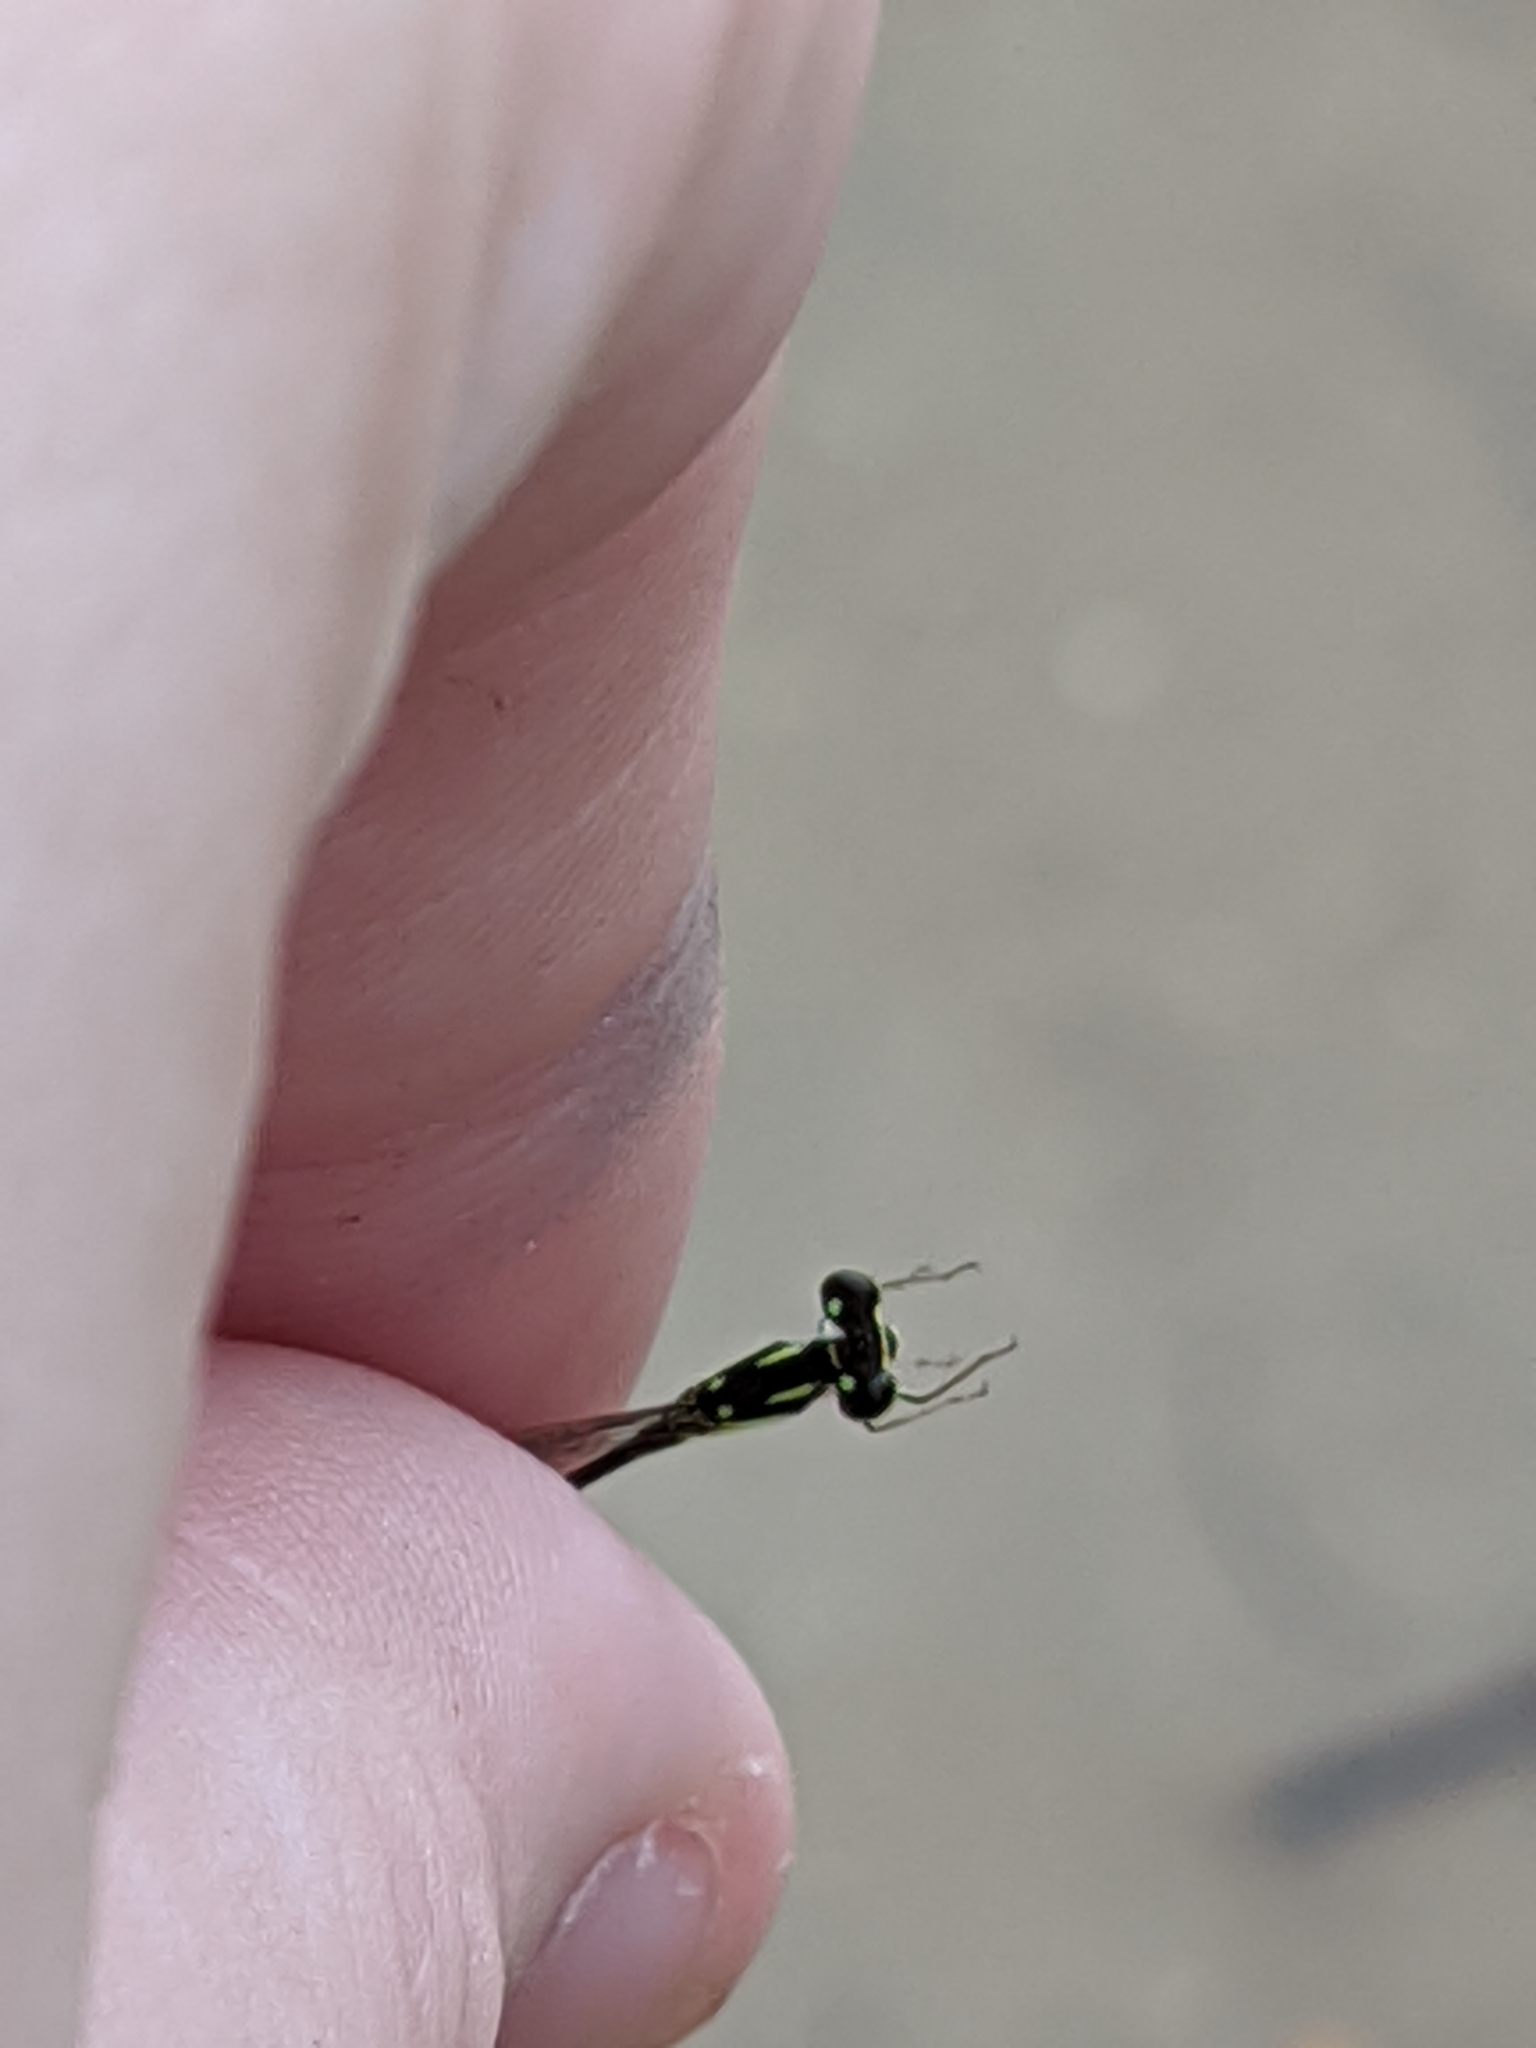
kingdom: Animalia
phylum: Arthropoda
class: Insecta
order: Odonata
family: Coenagrionidae
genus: Ischnura
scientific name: Ischnura posita
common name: Fragile forktail
